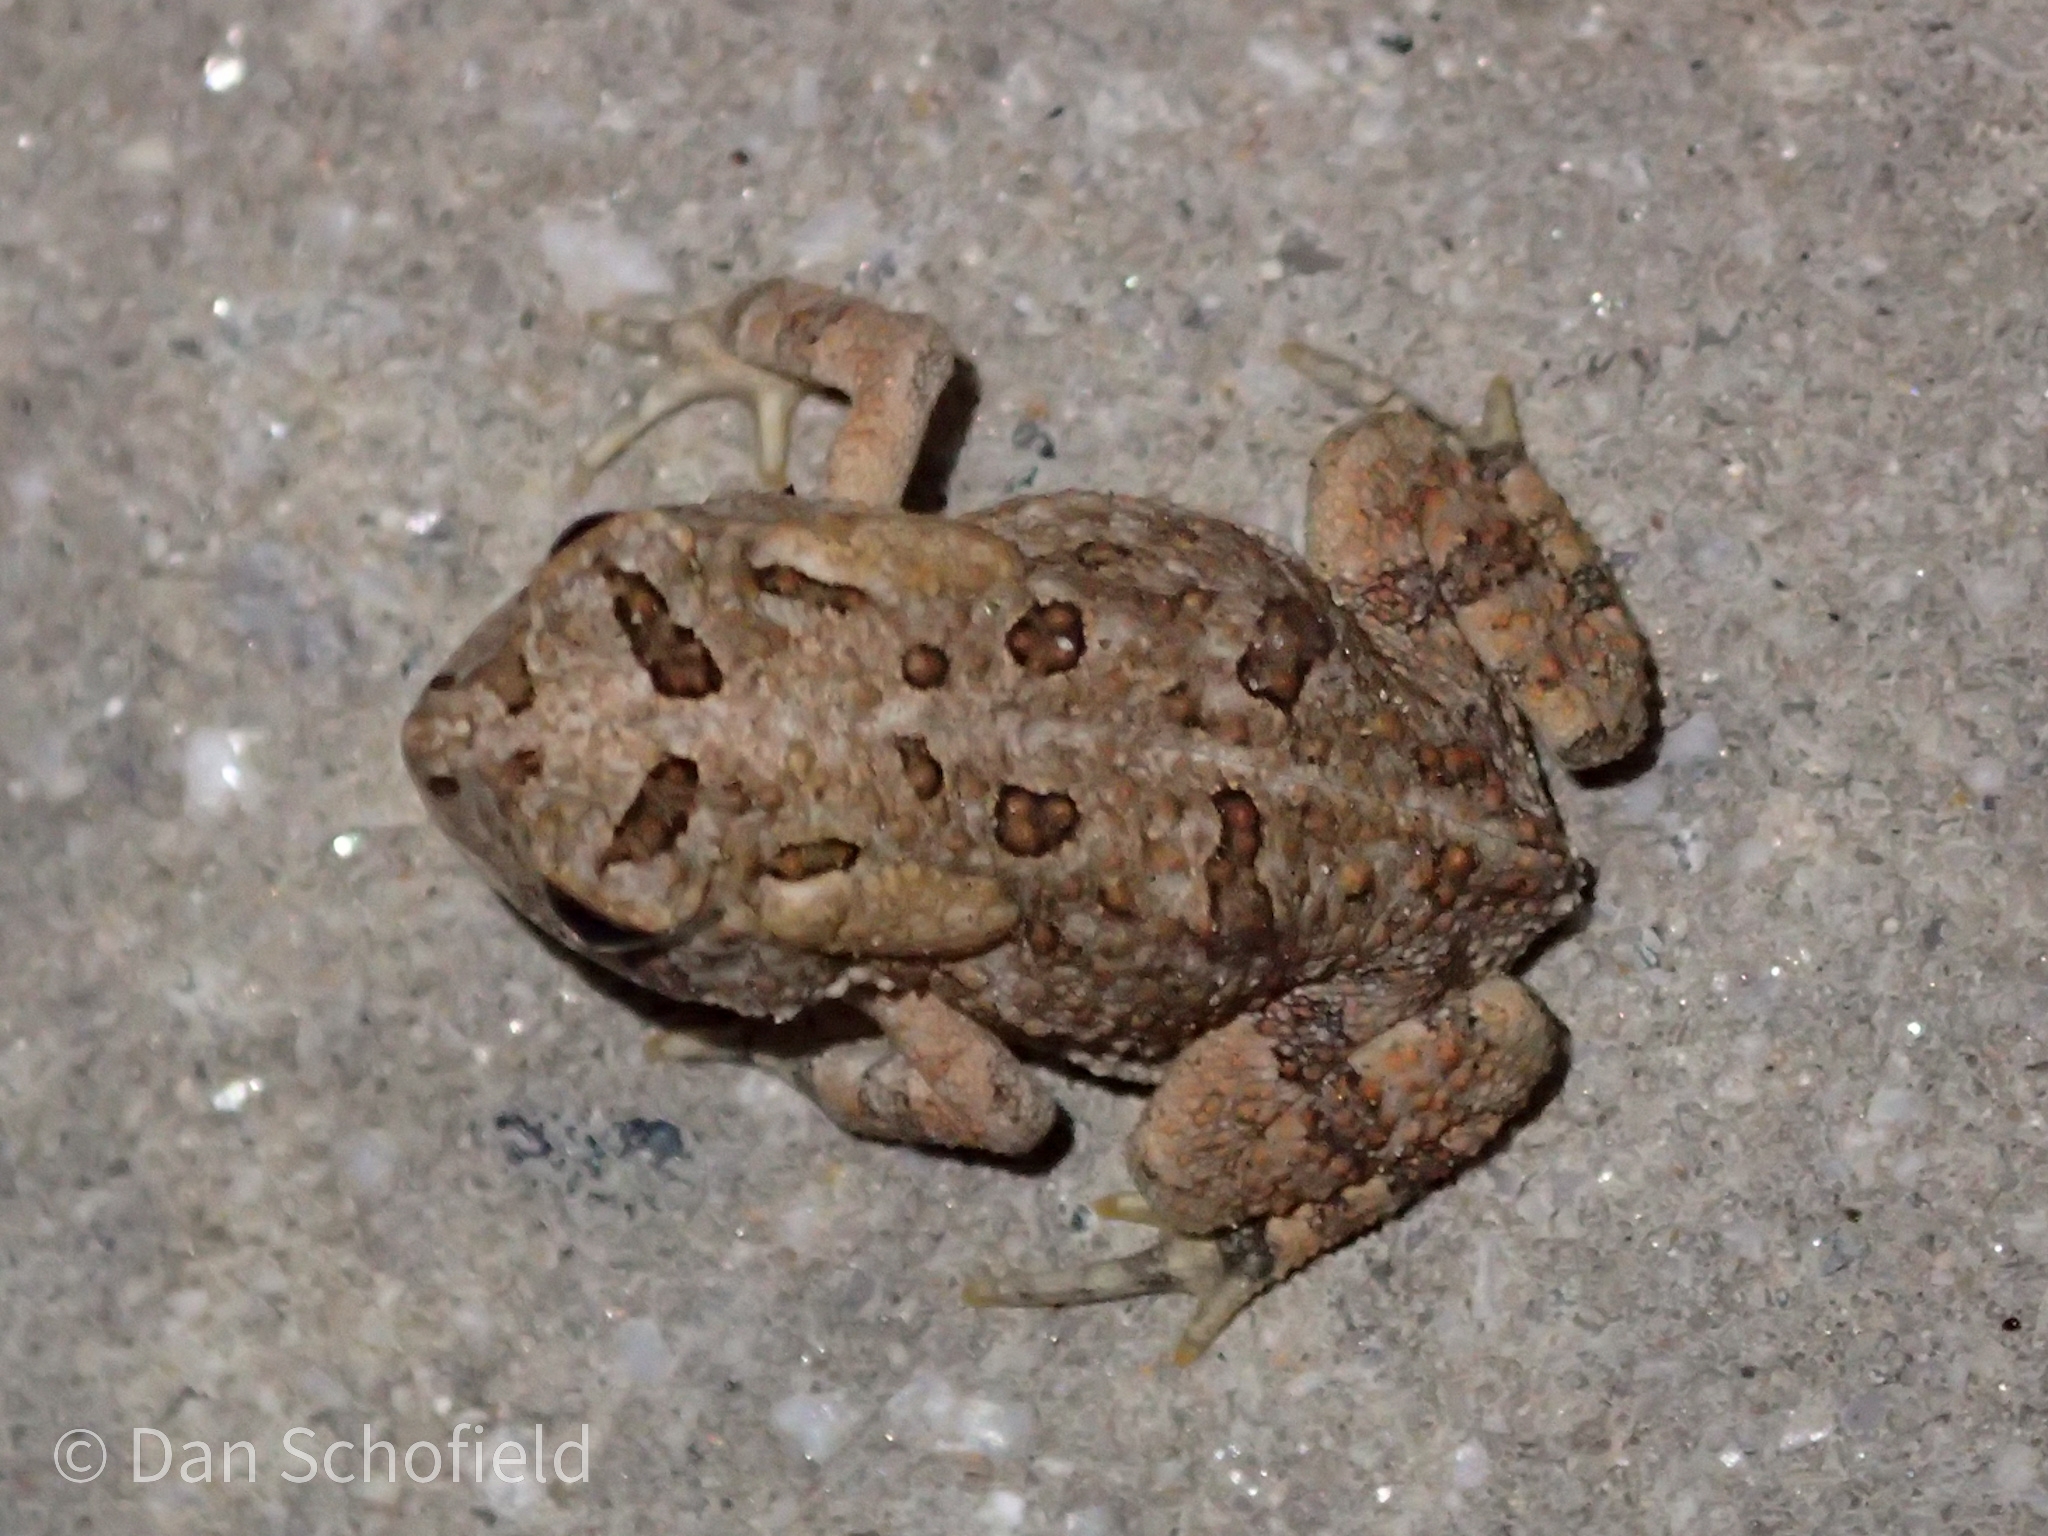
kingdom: Animalia
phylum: Chordata
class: Amphibia
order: Anura
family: Bufonidae
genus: Anaxyrus
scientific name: Anaxyrus terrestris
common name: Southern toad
